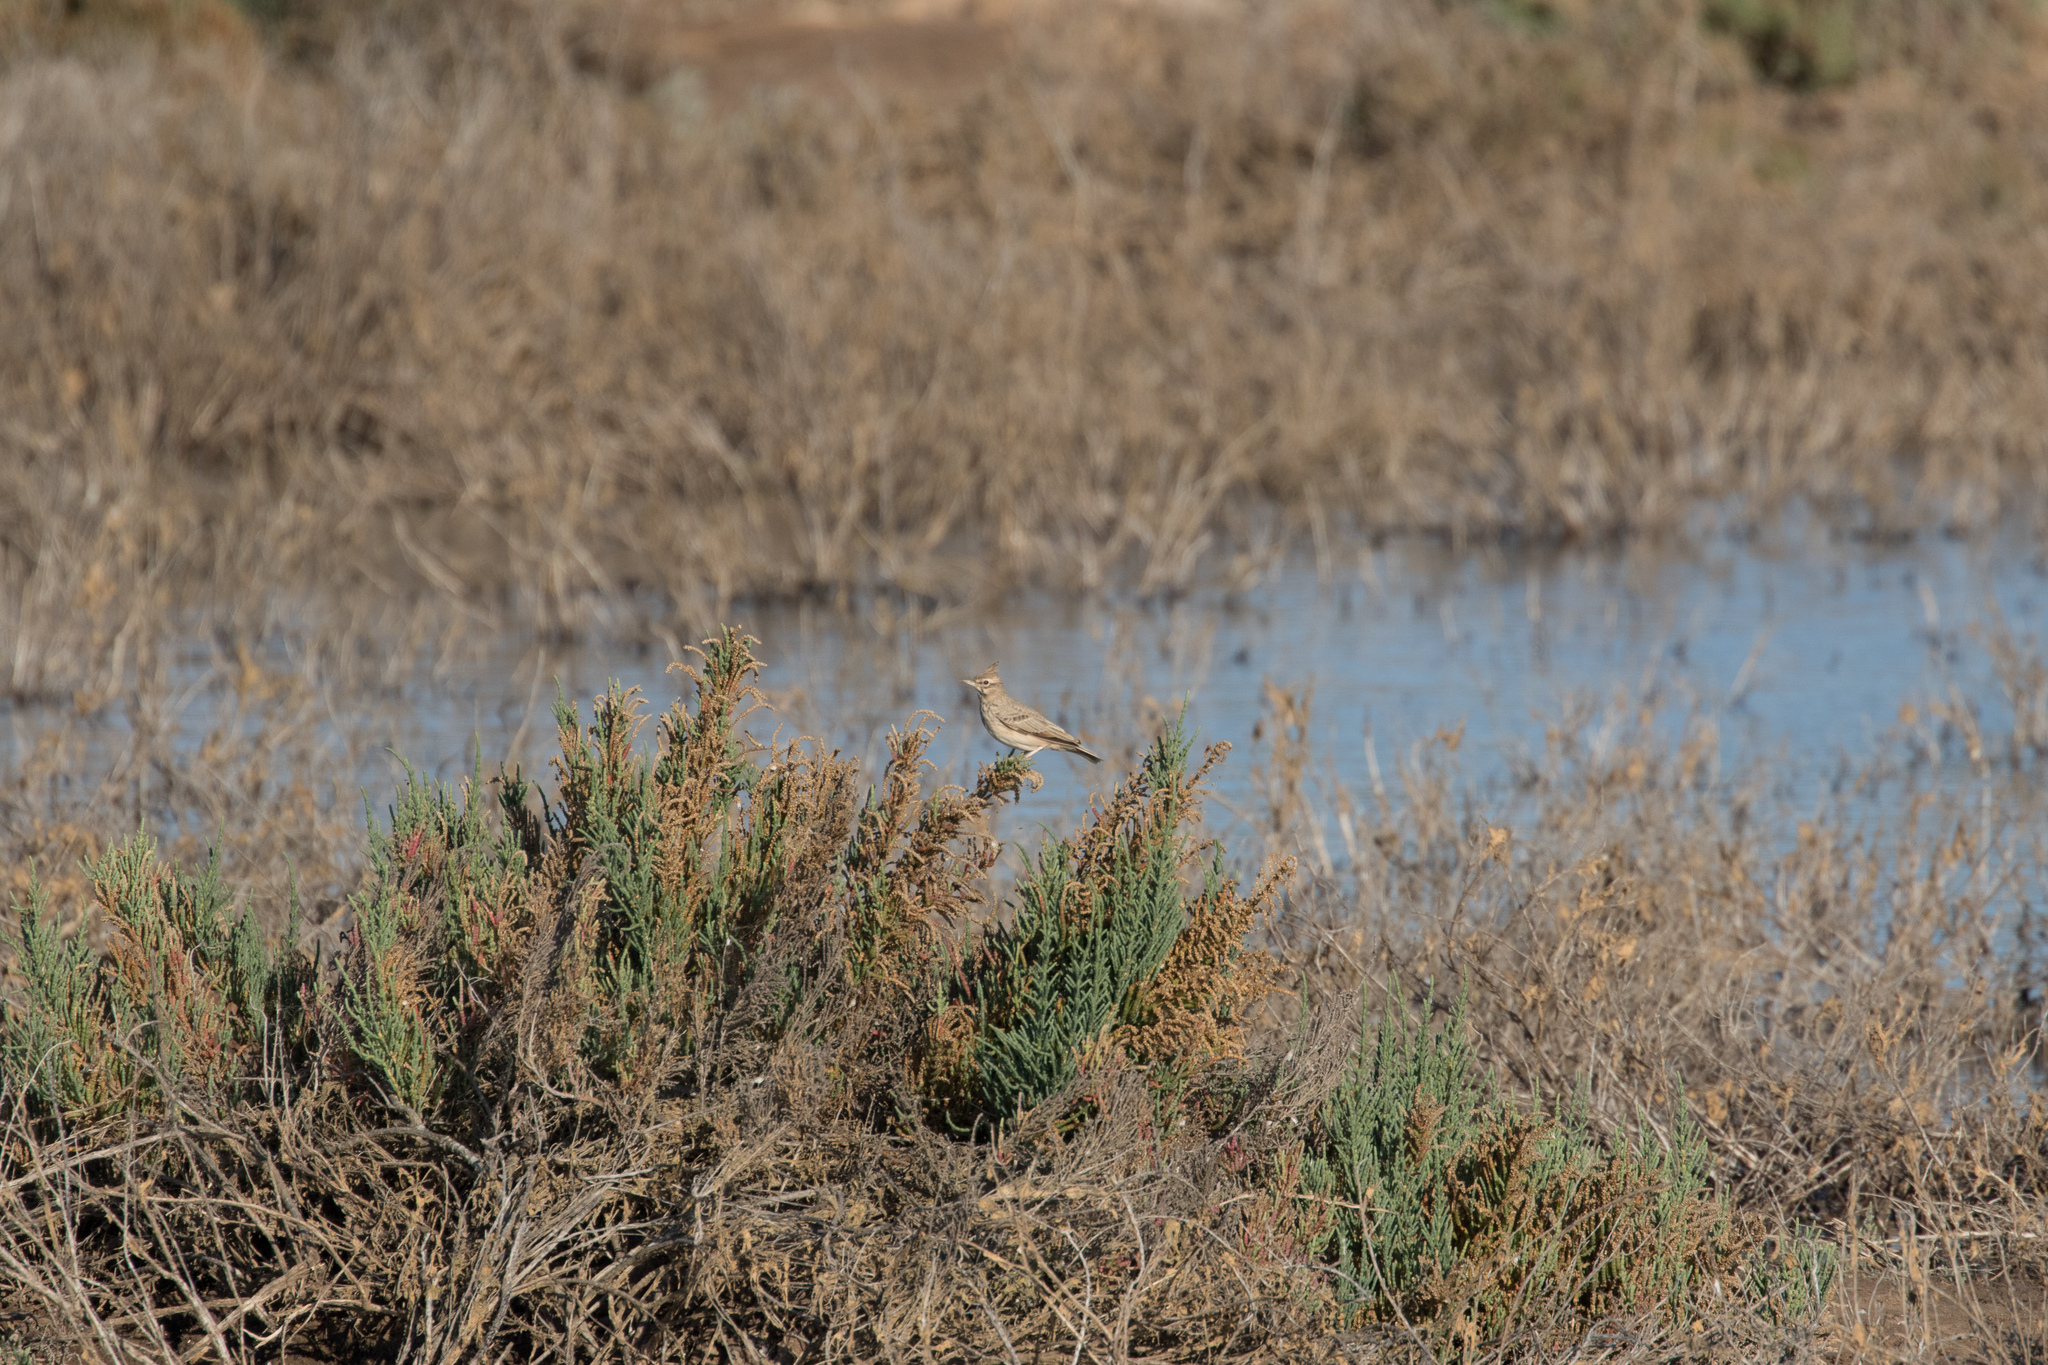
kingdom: Animalia
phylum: Chordata
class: Aves
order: Passeriformes
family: Alaudidae
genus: Galerida
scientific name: Galerida cristata
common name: Crested lark
